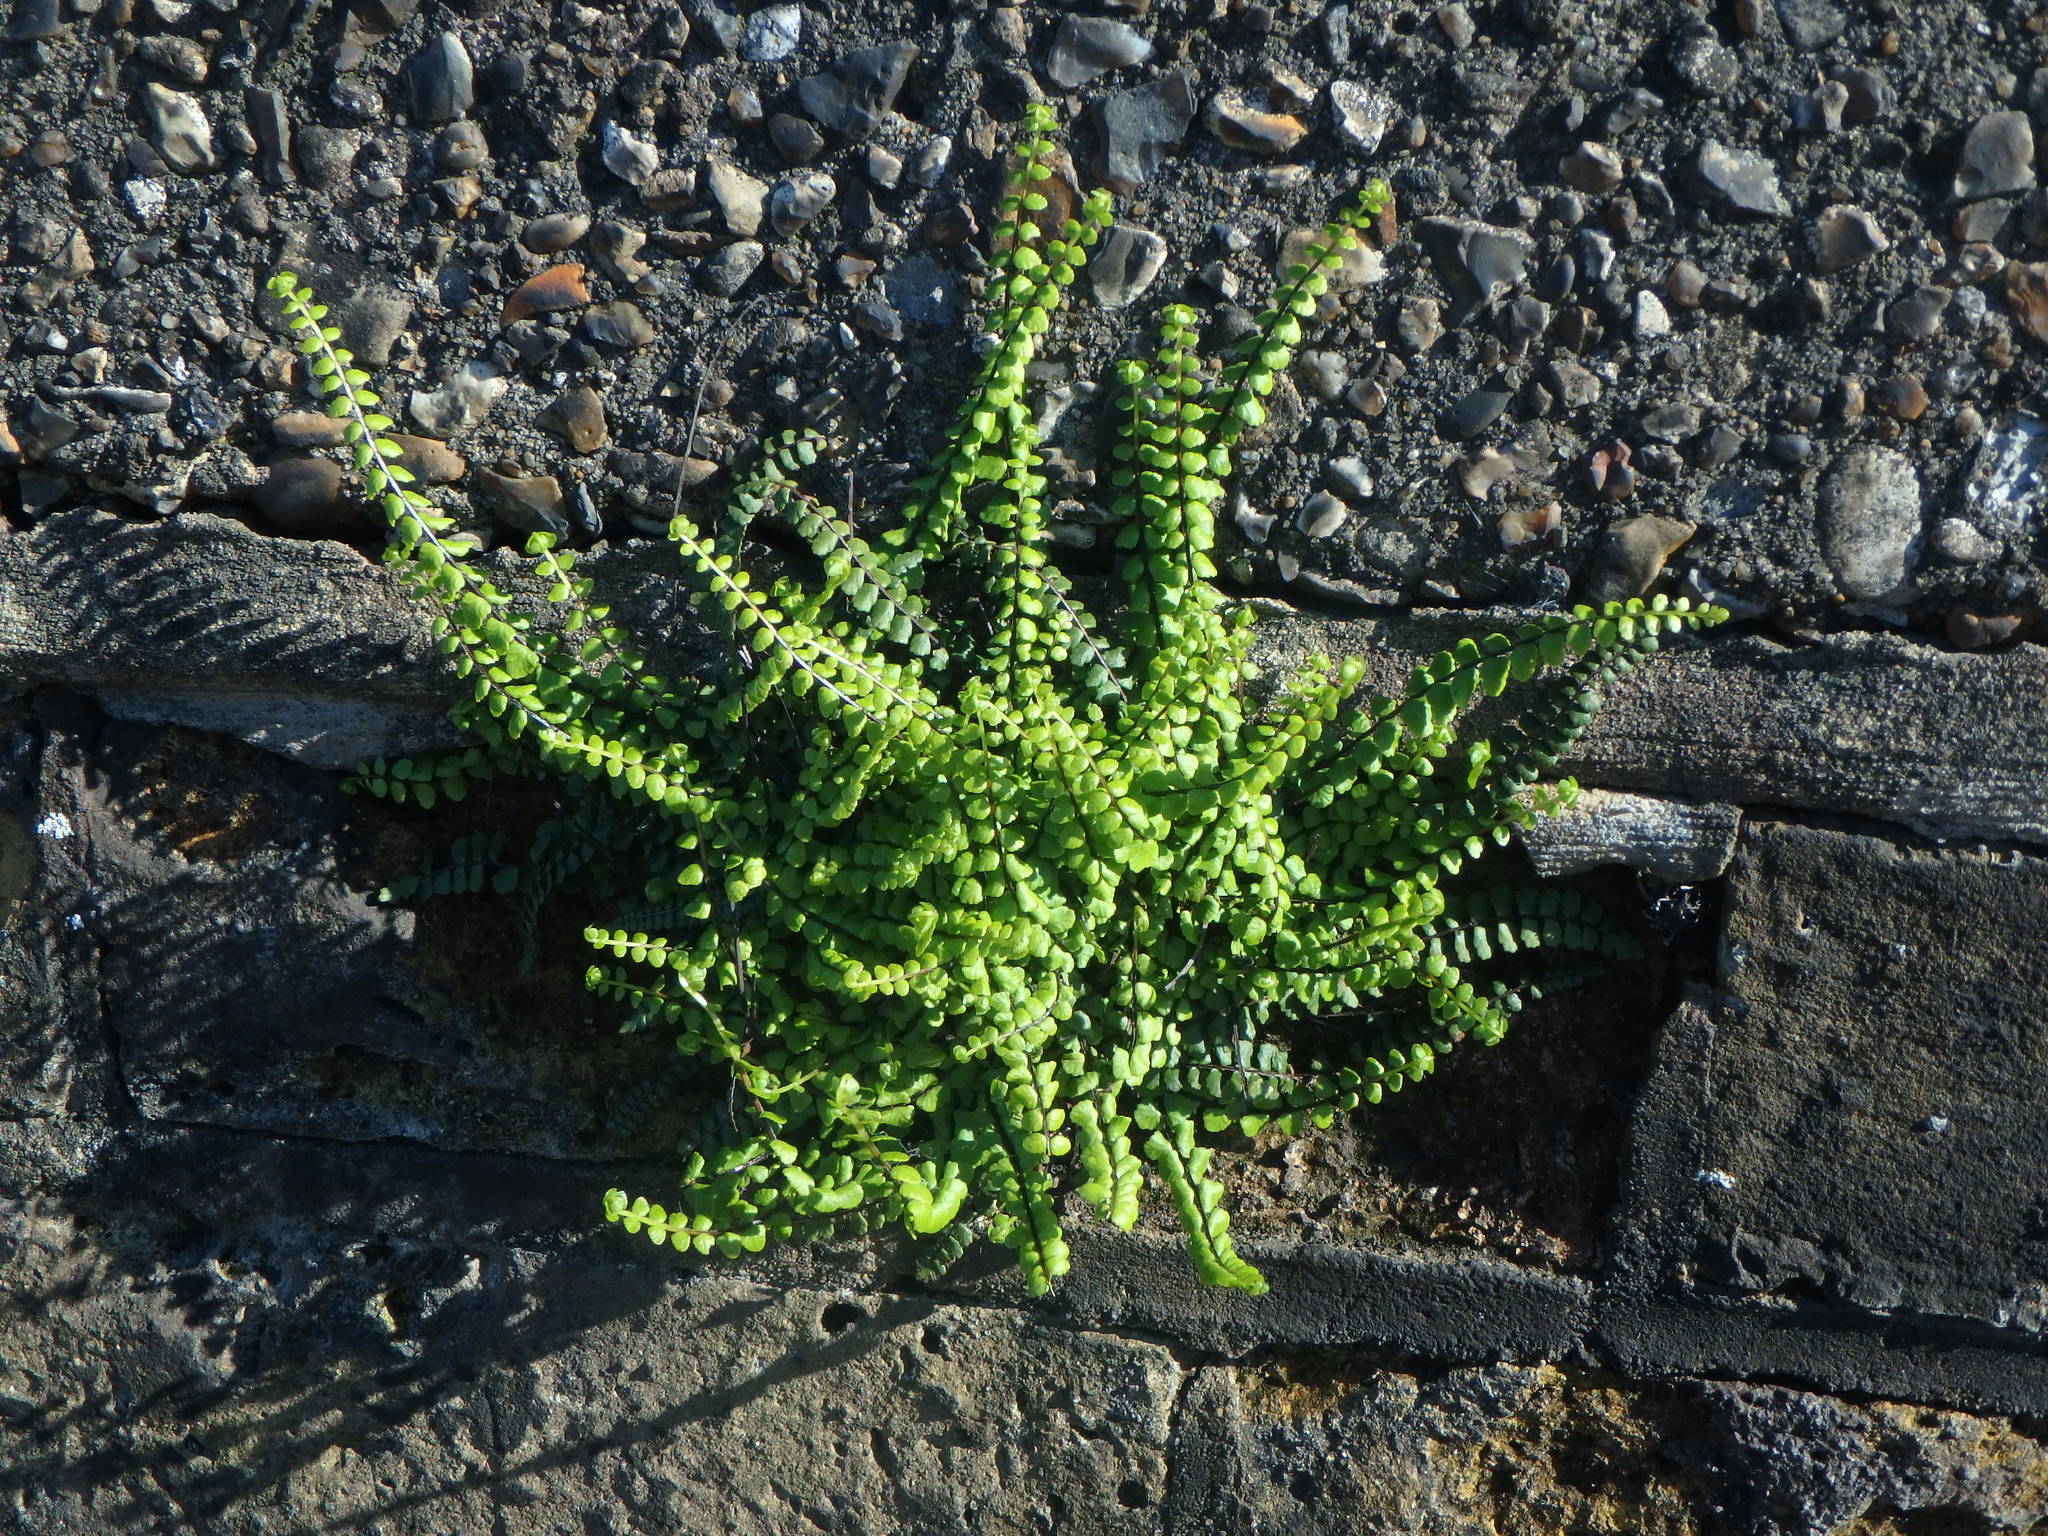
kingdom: Plantae
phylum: Tracheophyta
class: Polypodiopsida
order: Polypodiales
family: Aspleniaceae
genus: Asplenium
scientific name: Asplenium trichomanes
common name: Maidenhair spleenwort
